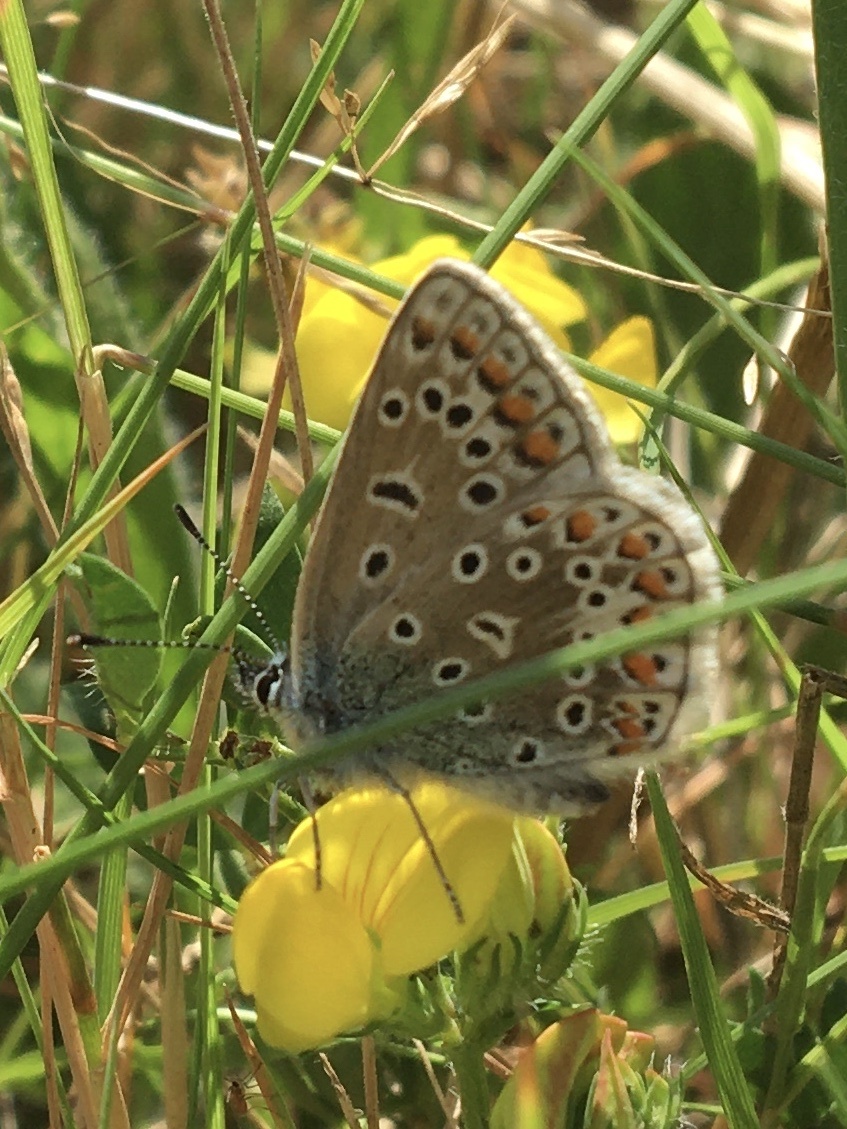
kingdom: Animalia
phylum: Arthropoda
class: Insecta
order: Lepidoptera
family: Lycaenidae
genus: Polyommatus
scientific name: Polyommatus icarus
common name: Common blue
